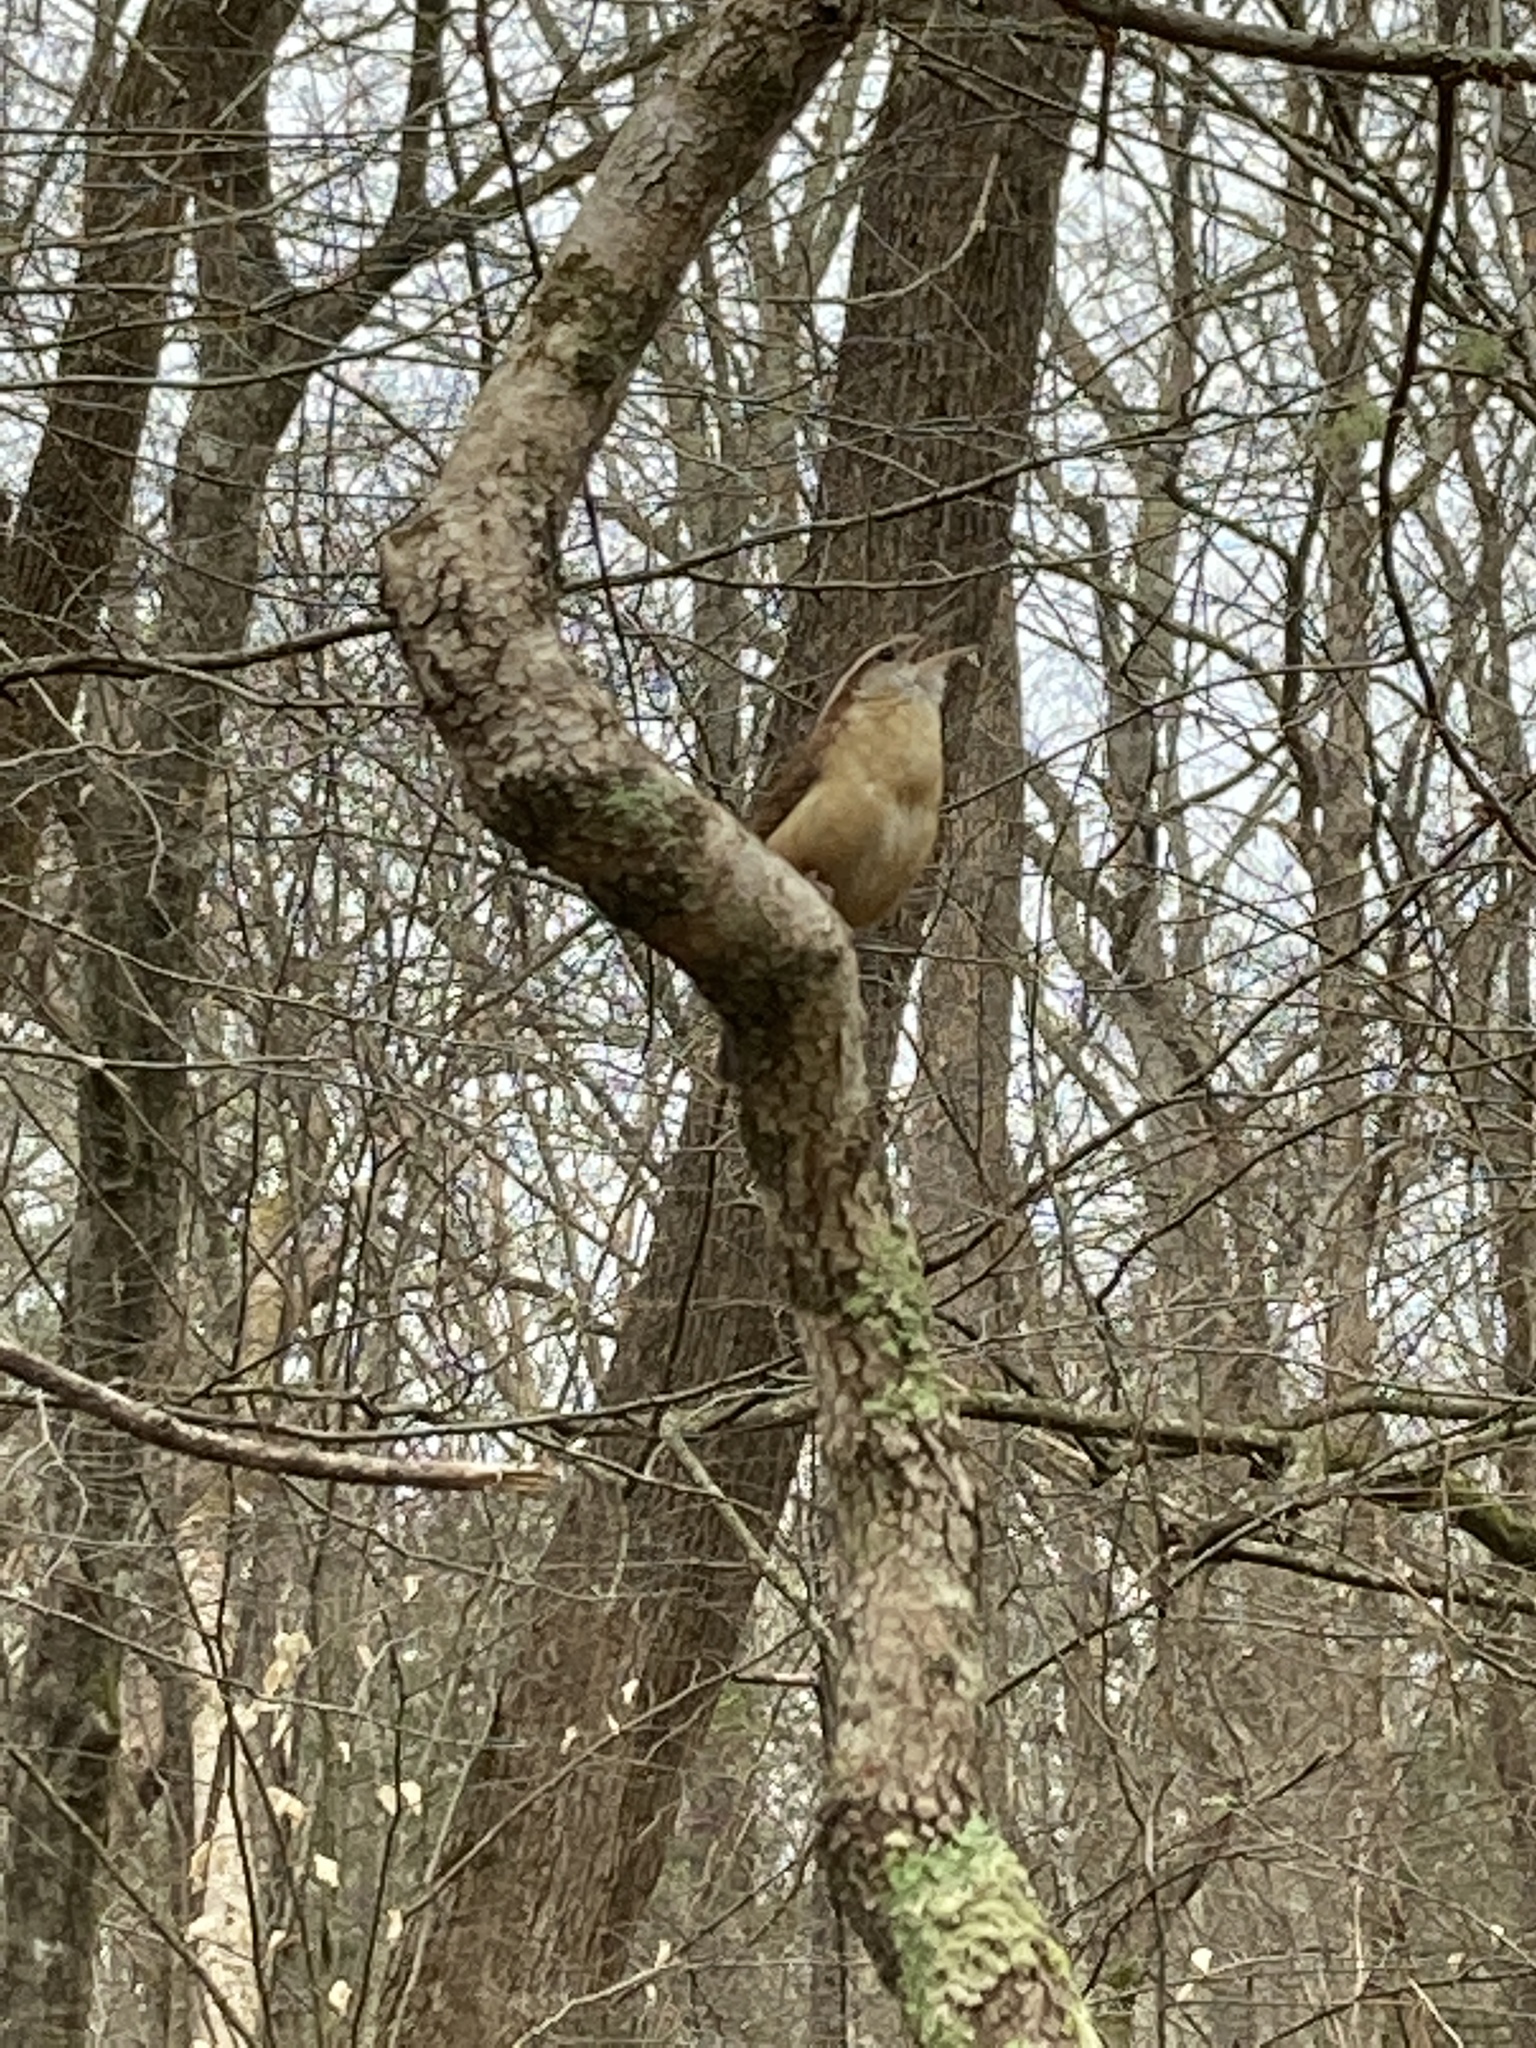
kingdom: Animalia
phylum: Chordata
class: Aves
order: Passeriformes
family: Troglodytidae
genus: Thryothorus
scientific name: Thryothorus ludovicianus
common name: Carolina wren
